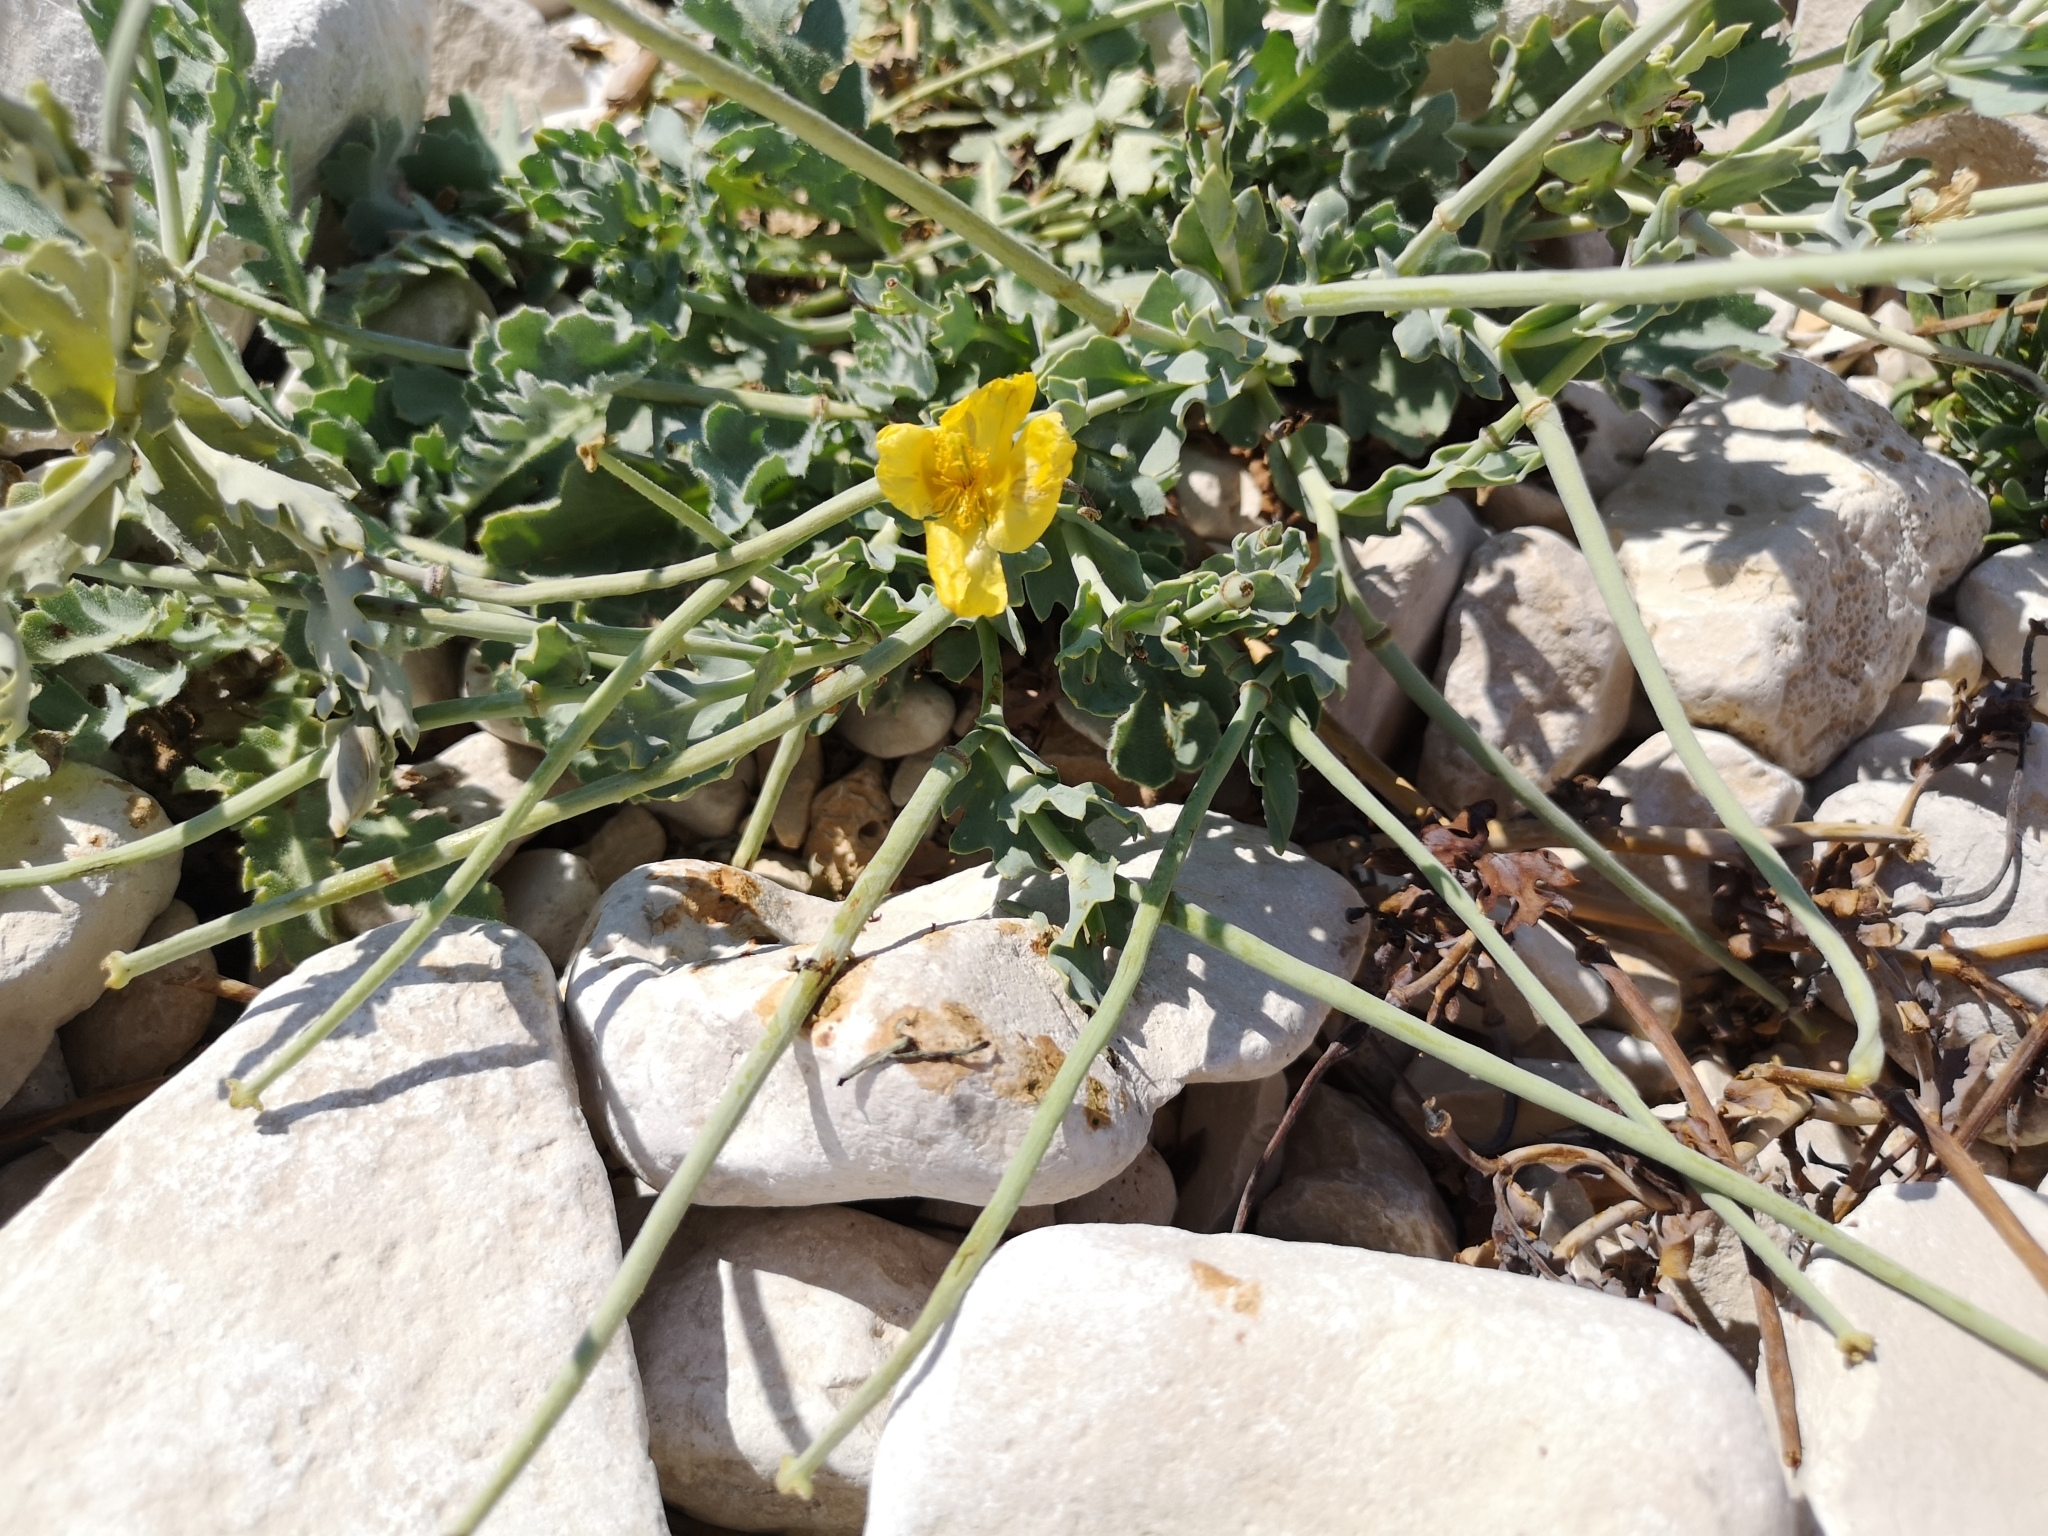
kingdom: Plantae
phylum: Tracheophyta
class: Magnoliopsida
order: Ranunculales
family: Papaveraceae
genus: Glaucium
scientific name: Glaucium flavum
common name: Yellow horned-poppy
